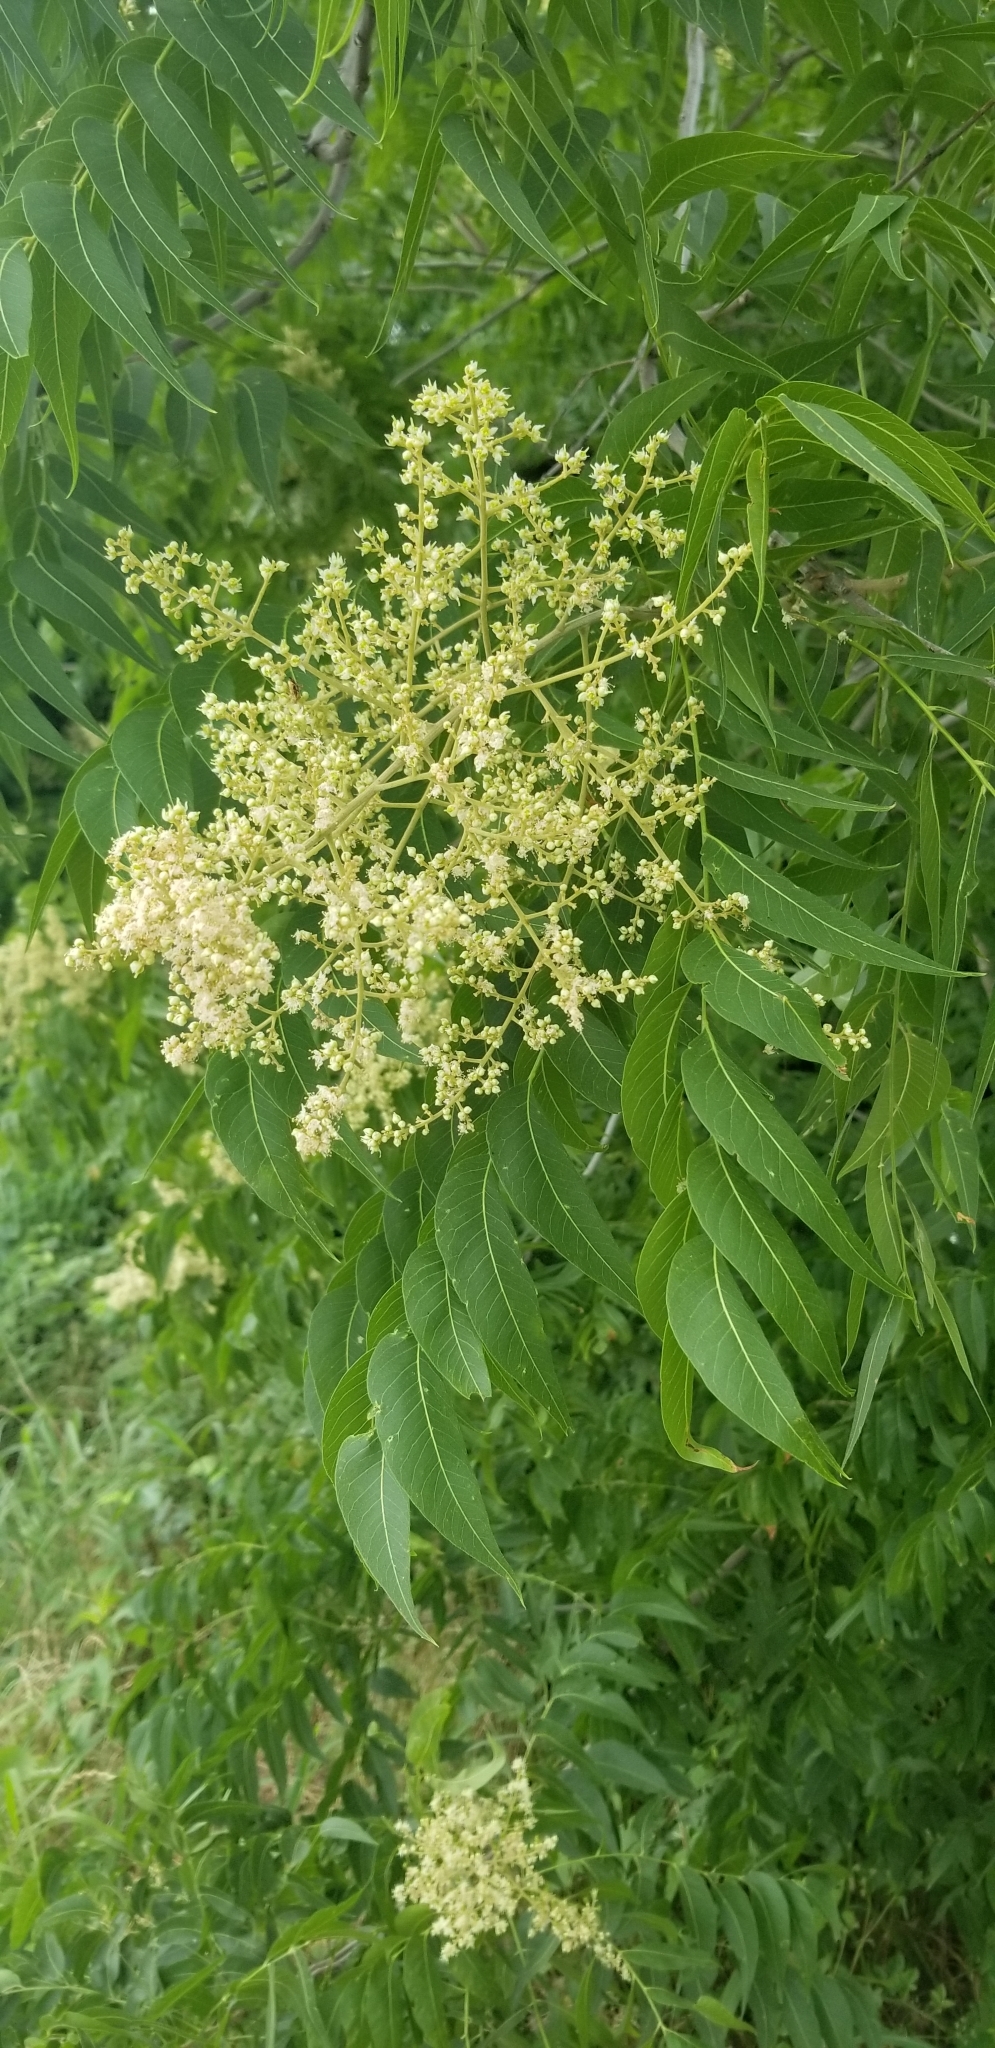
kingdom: Plantae
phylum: Tracheophyta
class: Magnoliopsida
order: Sapindales
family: Sapindaceae
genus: Sapindus
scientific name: Sapindus drummondii
